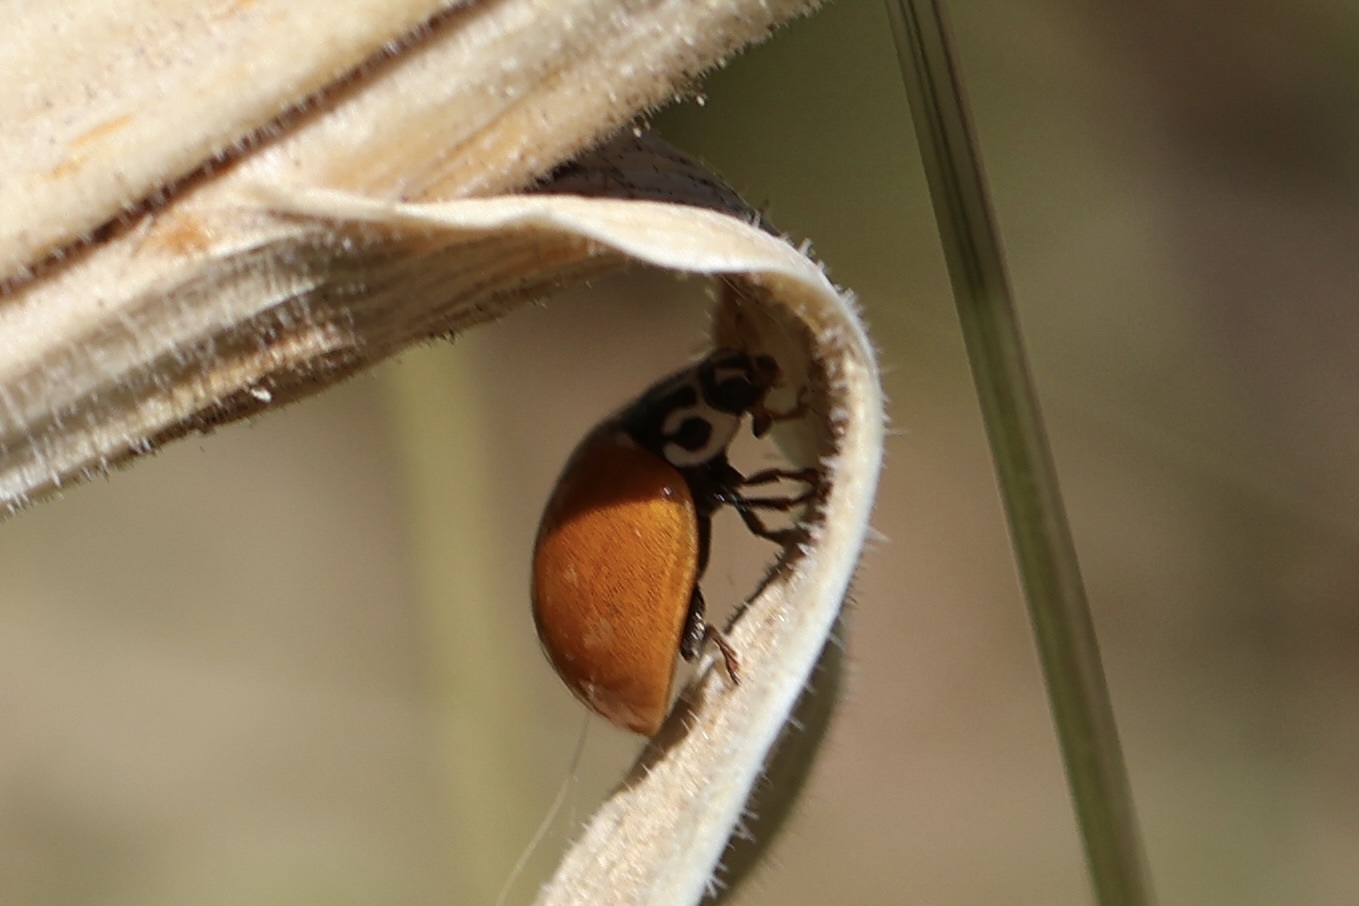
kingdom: Animalia
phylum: Arthropoda
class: Insecta
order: Coleoptera
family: Coccinellidae
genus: Cycloneda
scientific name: Cycloneda polita
